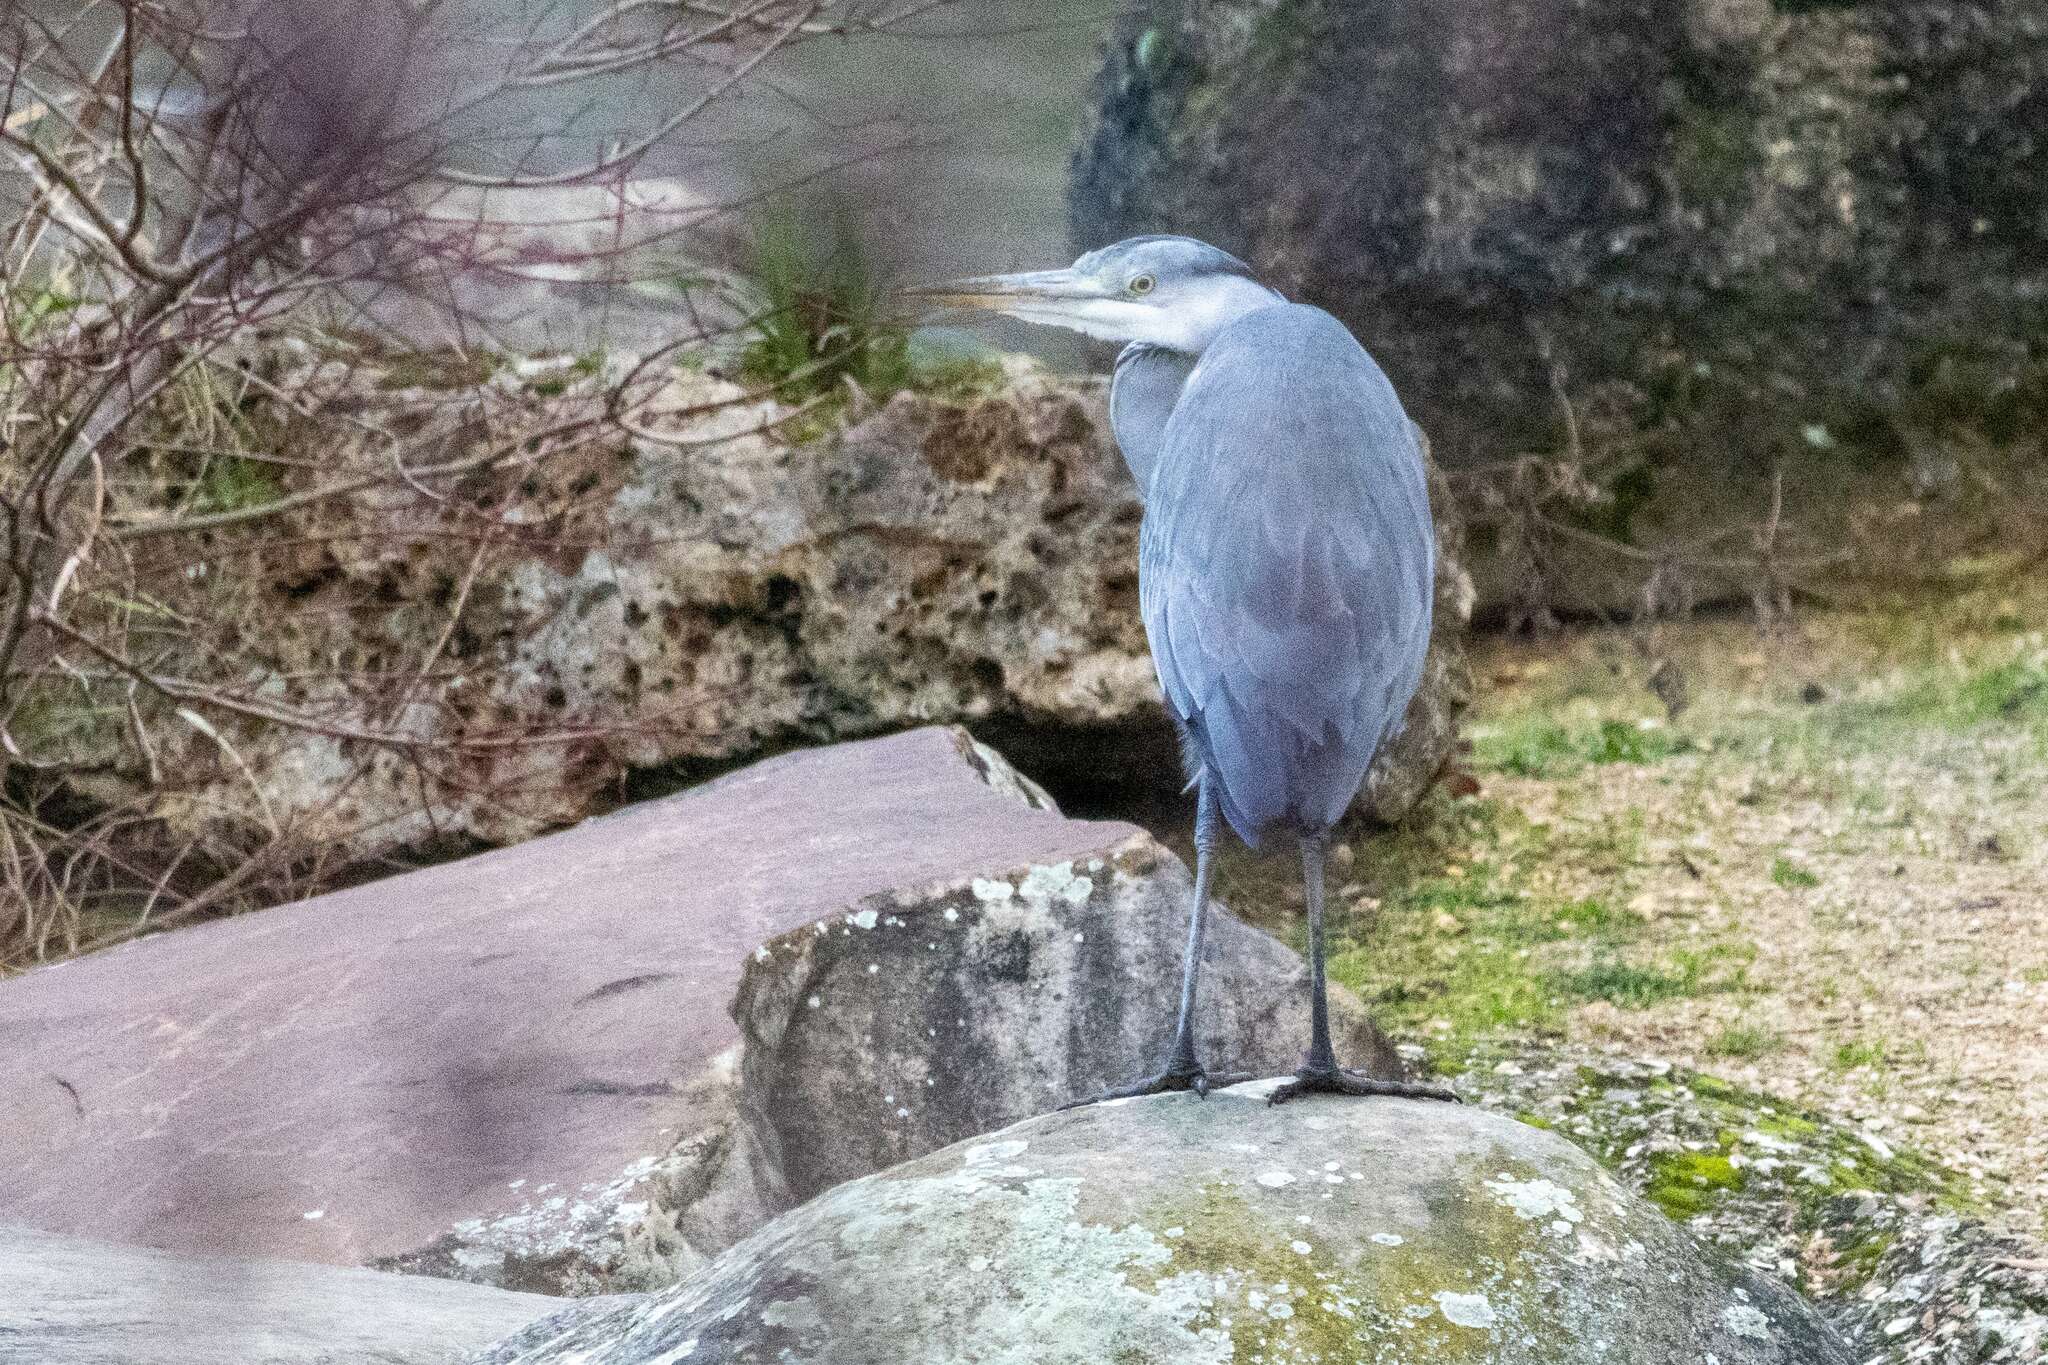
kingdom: Animalia
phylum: Chordata
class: Aves
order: Pelecaniformes
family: Ardeidae
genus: Ardea
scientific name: Ardea cinerea
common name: Grey heron
